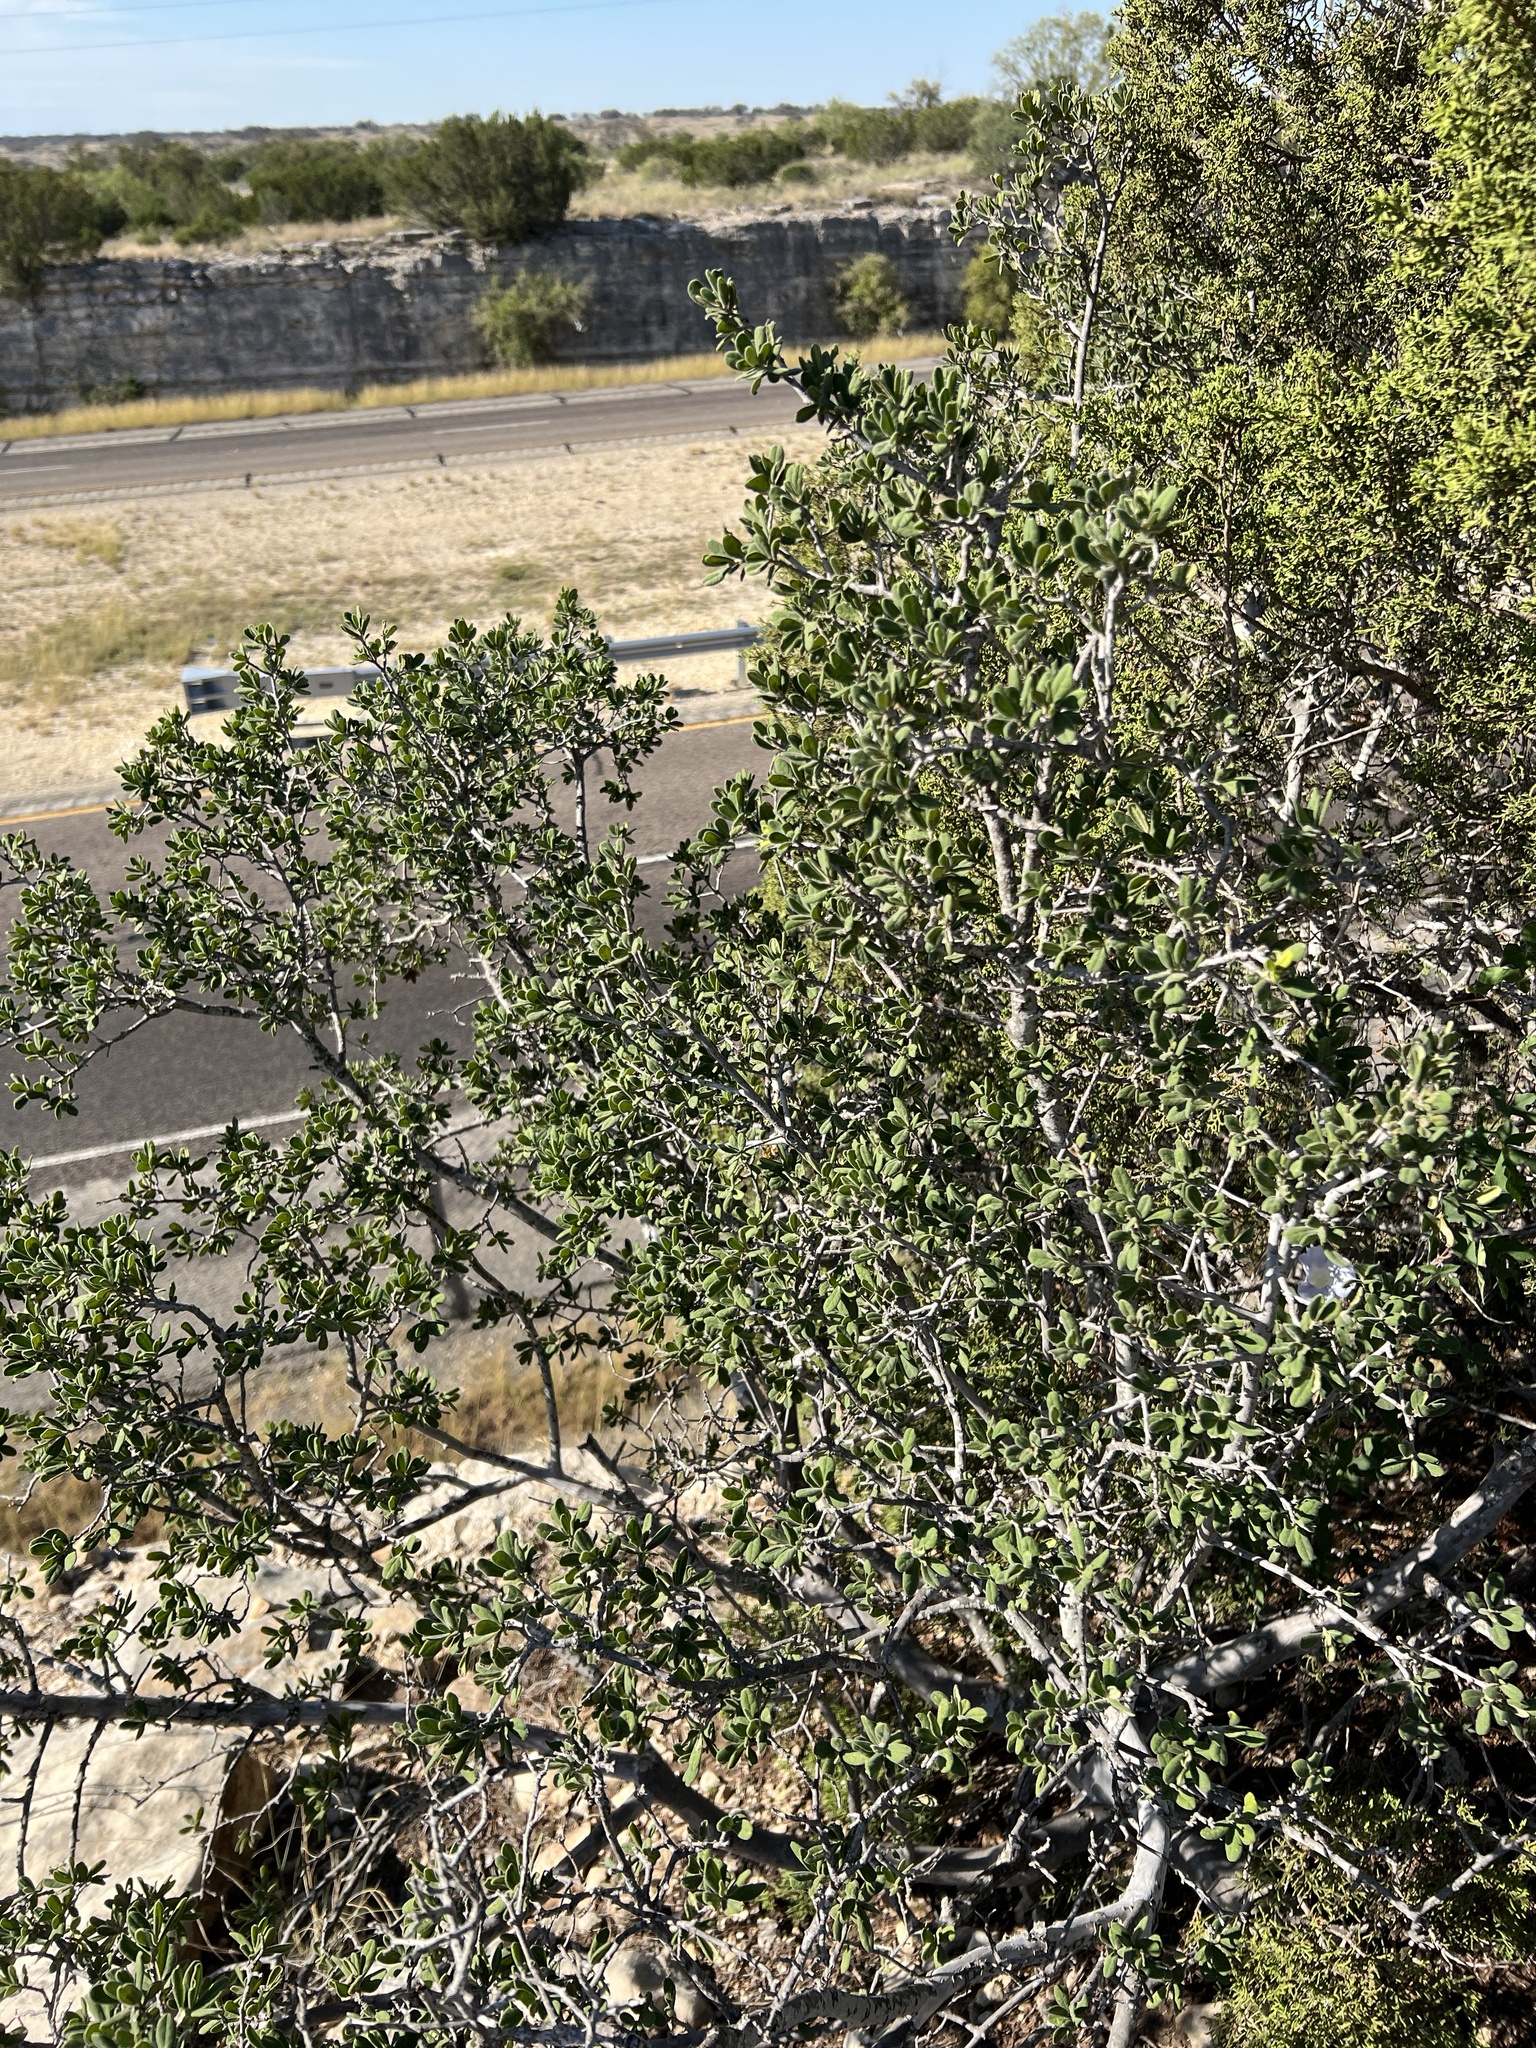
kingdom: Plantae
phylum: Tracheophyta
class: Magnoliopsida
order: Ericales
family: Ebenaceae
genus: Diospyros
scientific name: Diospyros texana
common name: Texas persimmon
